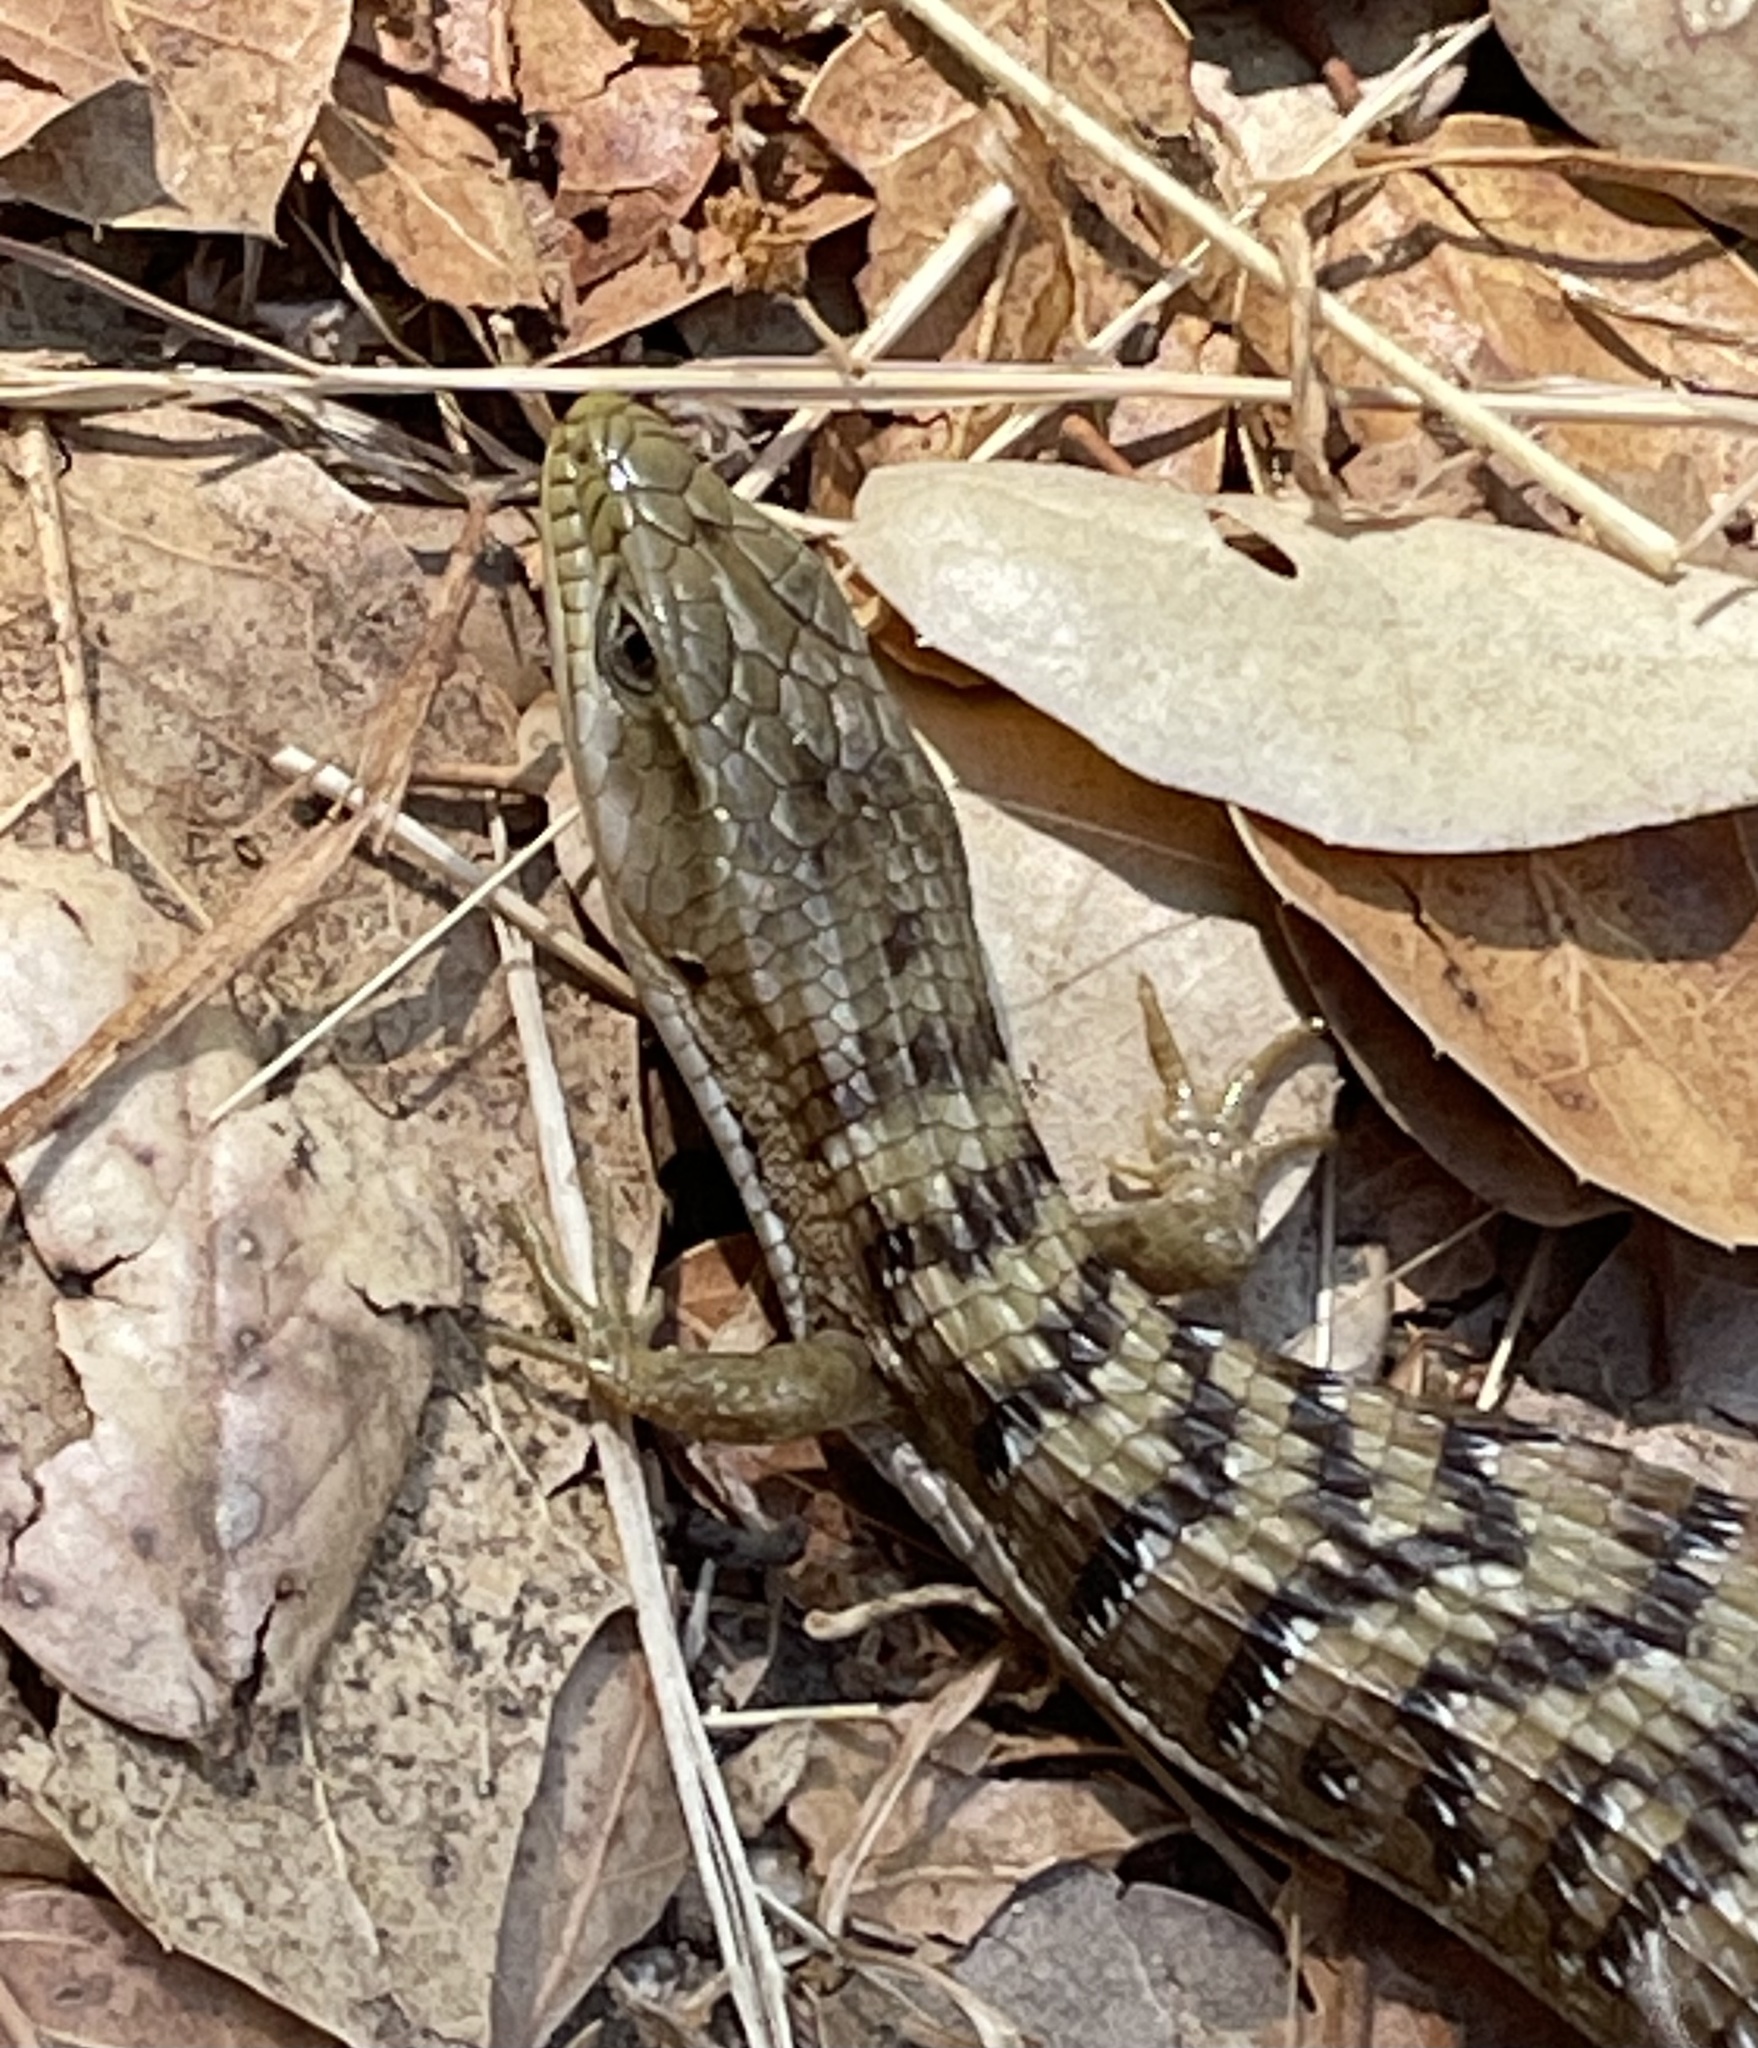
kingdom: Animalia
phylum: Chordata
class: Squamata
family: Anguidae
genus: Elgaria
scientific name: Elgaria multicarinata
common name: Southern alligator lizard
